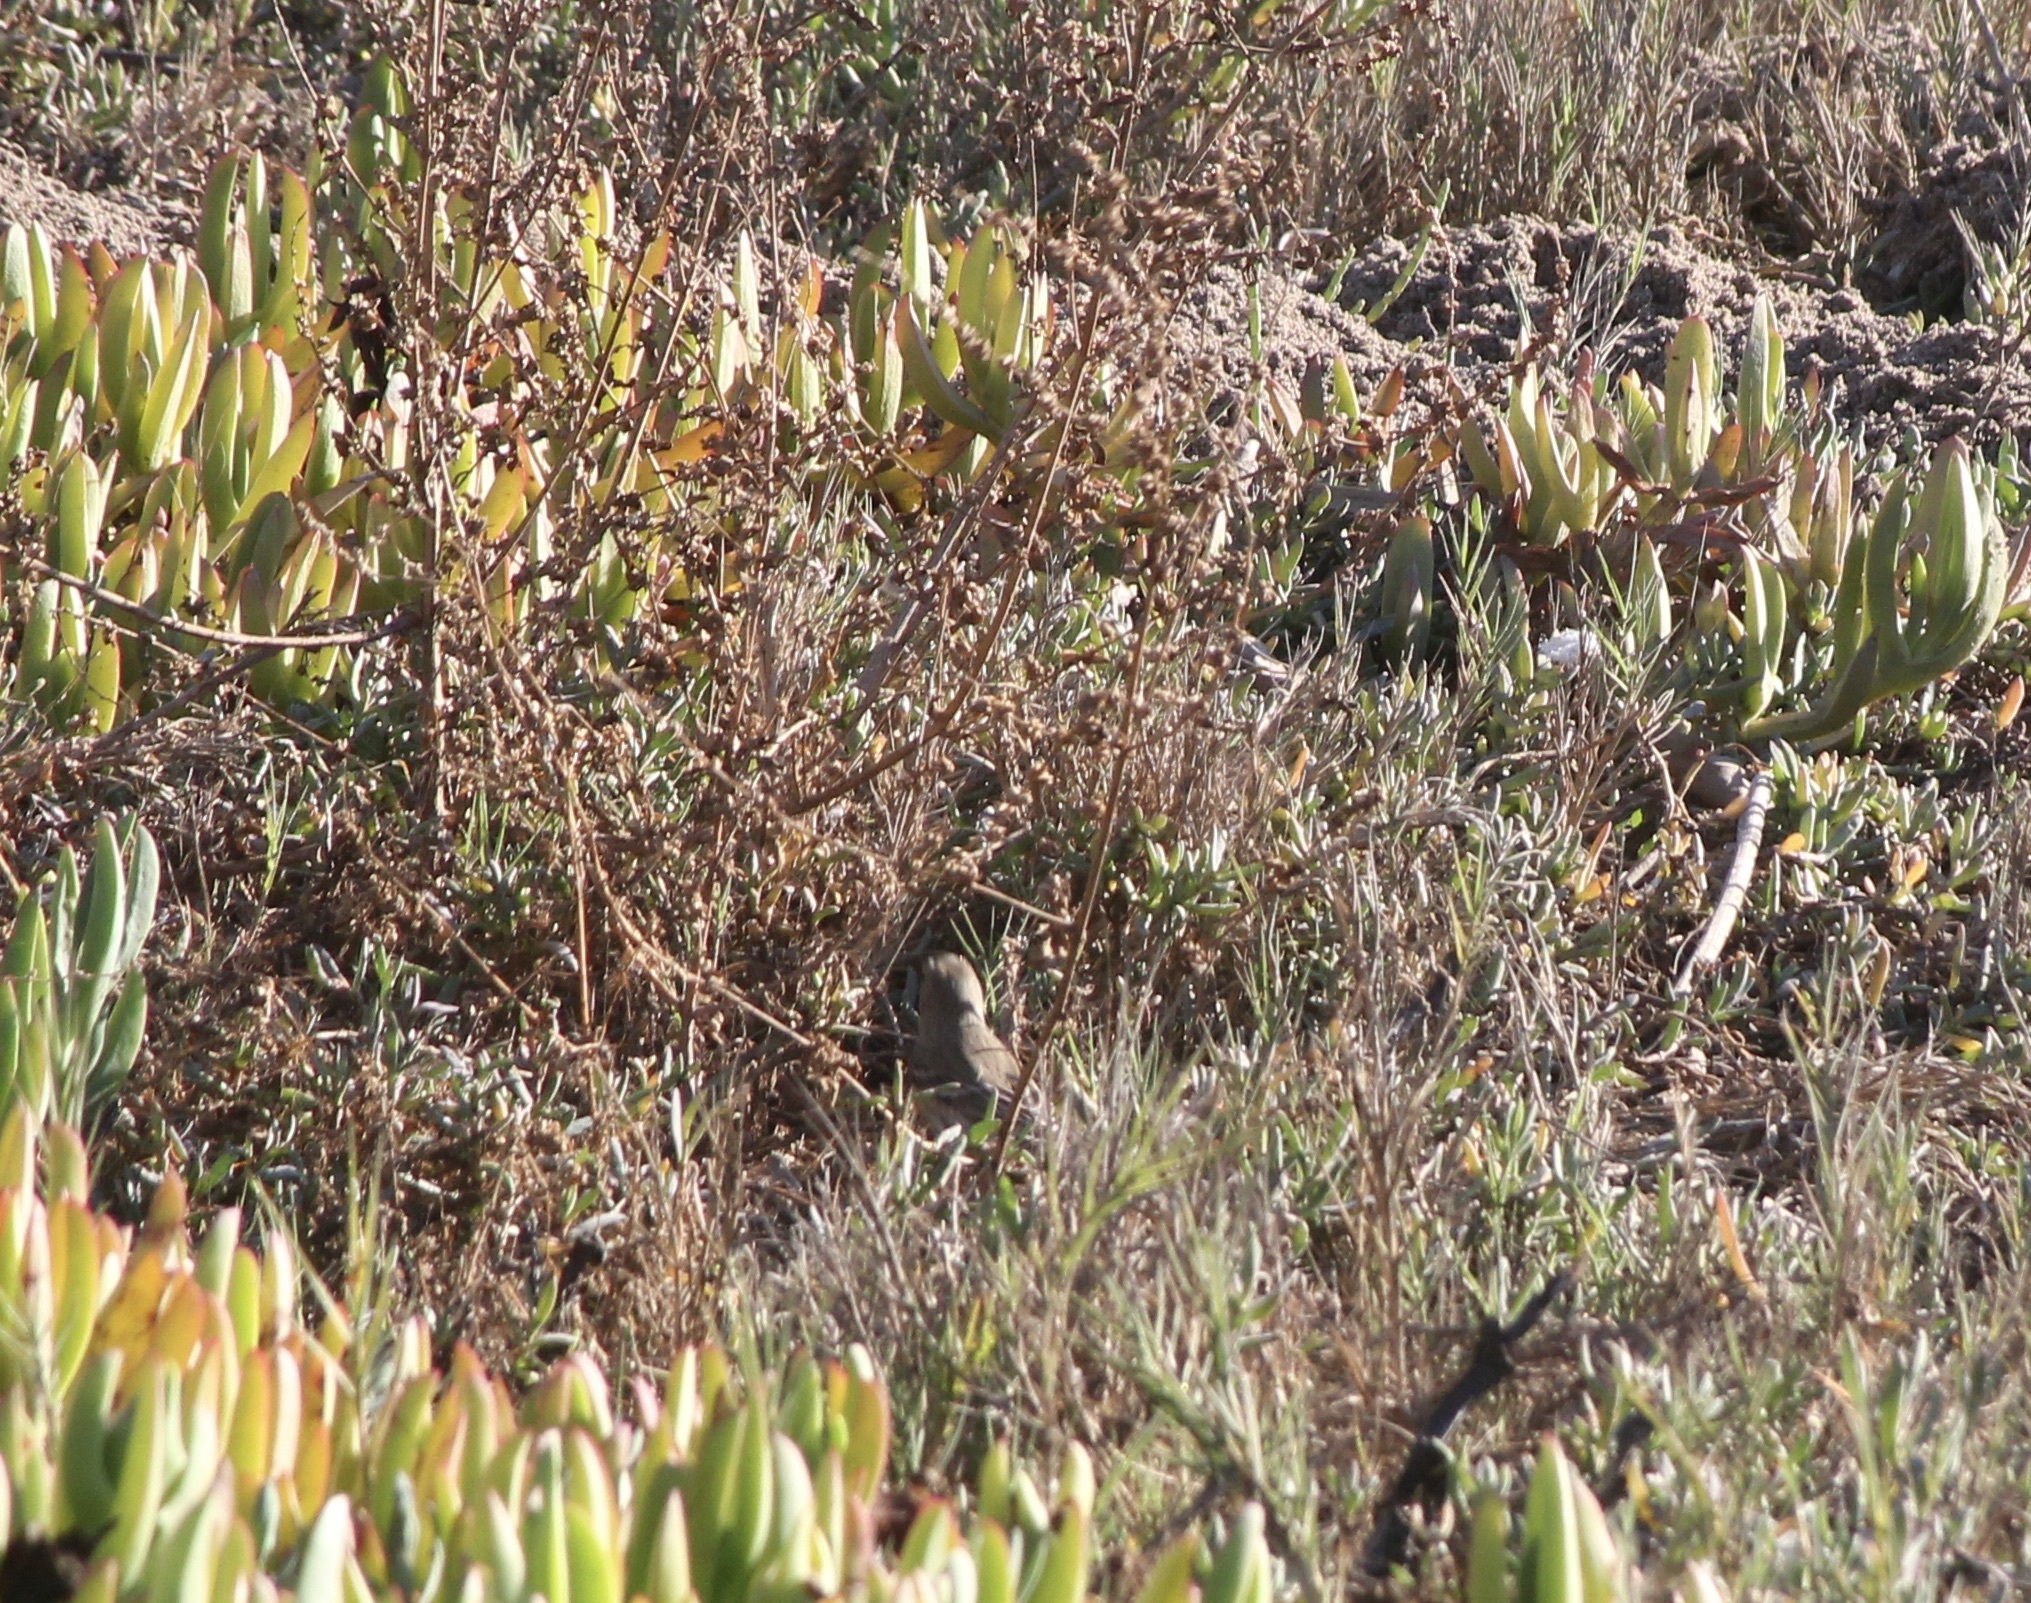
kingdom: Animalia
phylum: Chordata
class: Aves
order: Passeriformes
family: Parulidae
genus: Setophaga
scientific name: Setophaga coronata
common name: Myrtle warbler
